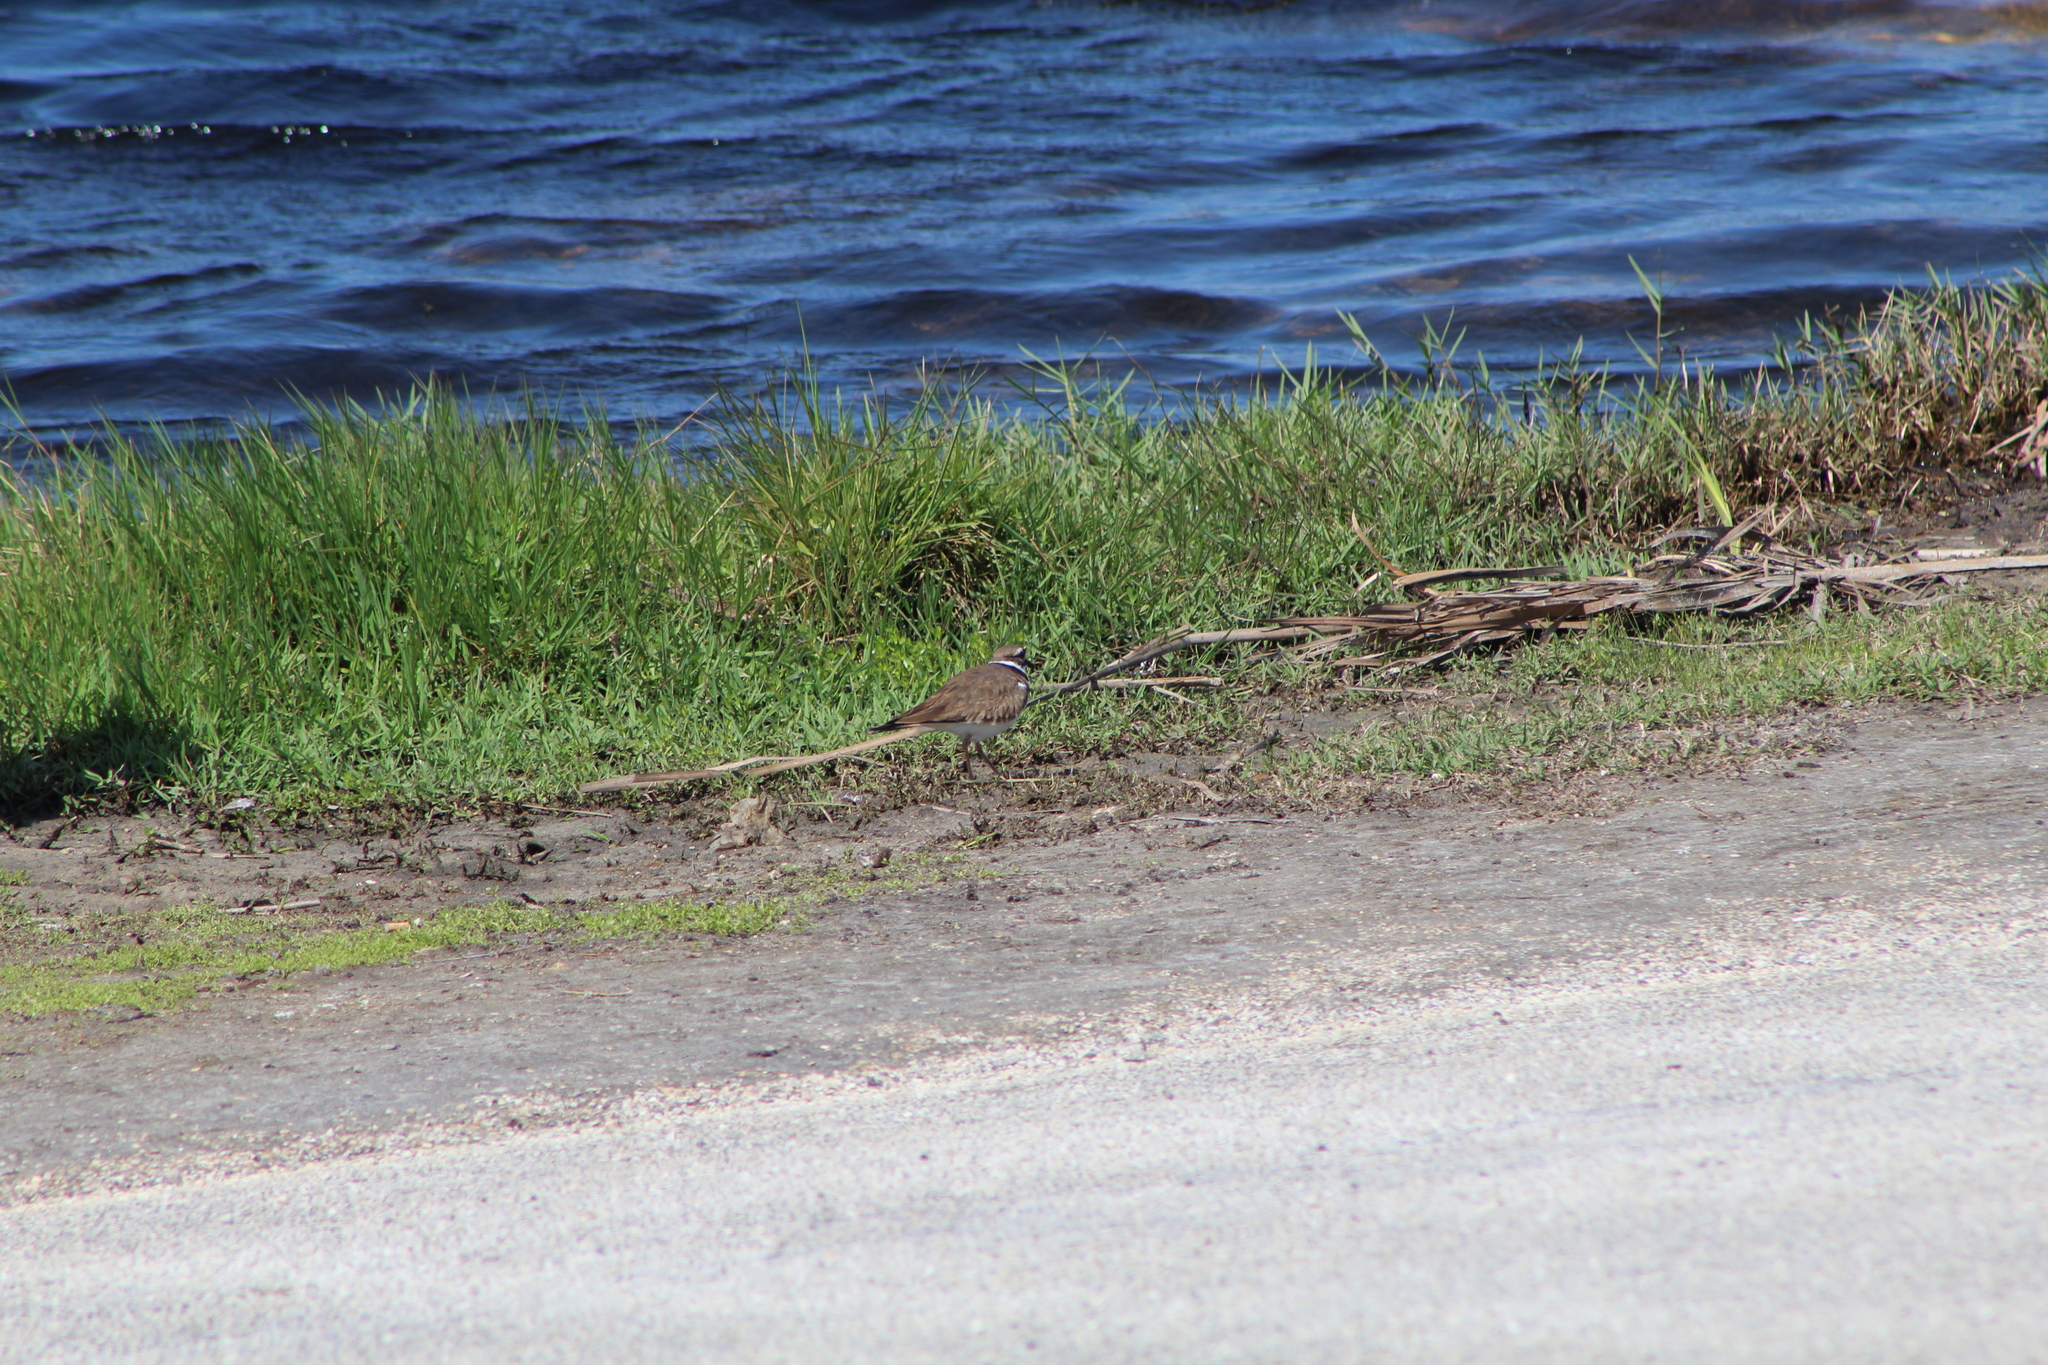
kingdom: Animalia
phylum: Chordata
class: Aves
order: Charadriiformes
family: Charadriidae
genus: Charadrius
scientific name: Charadrius vociferus
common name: Killdeer
